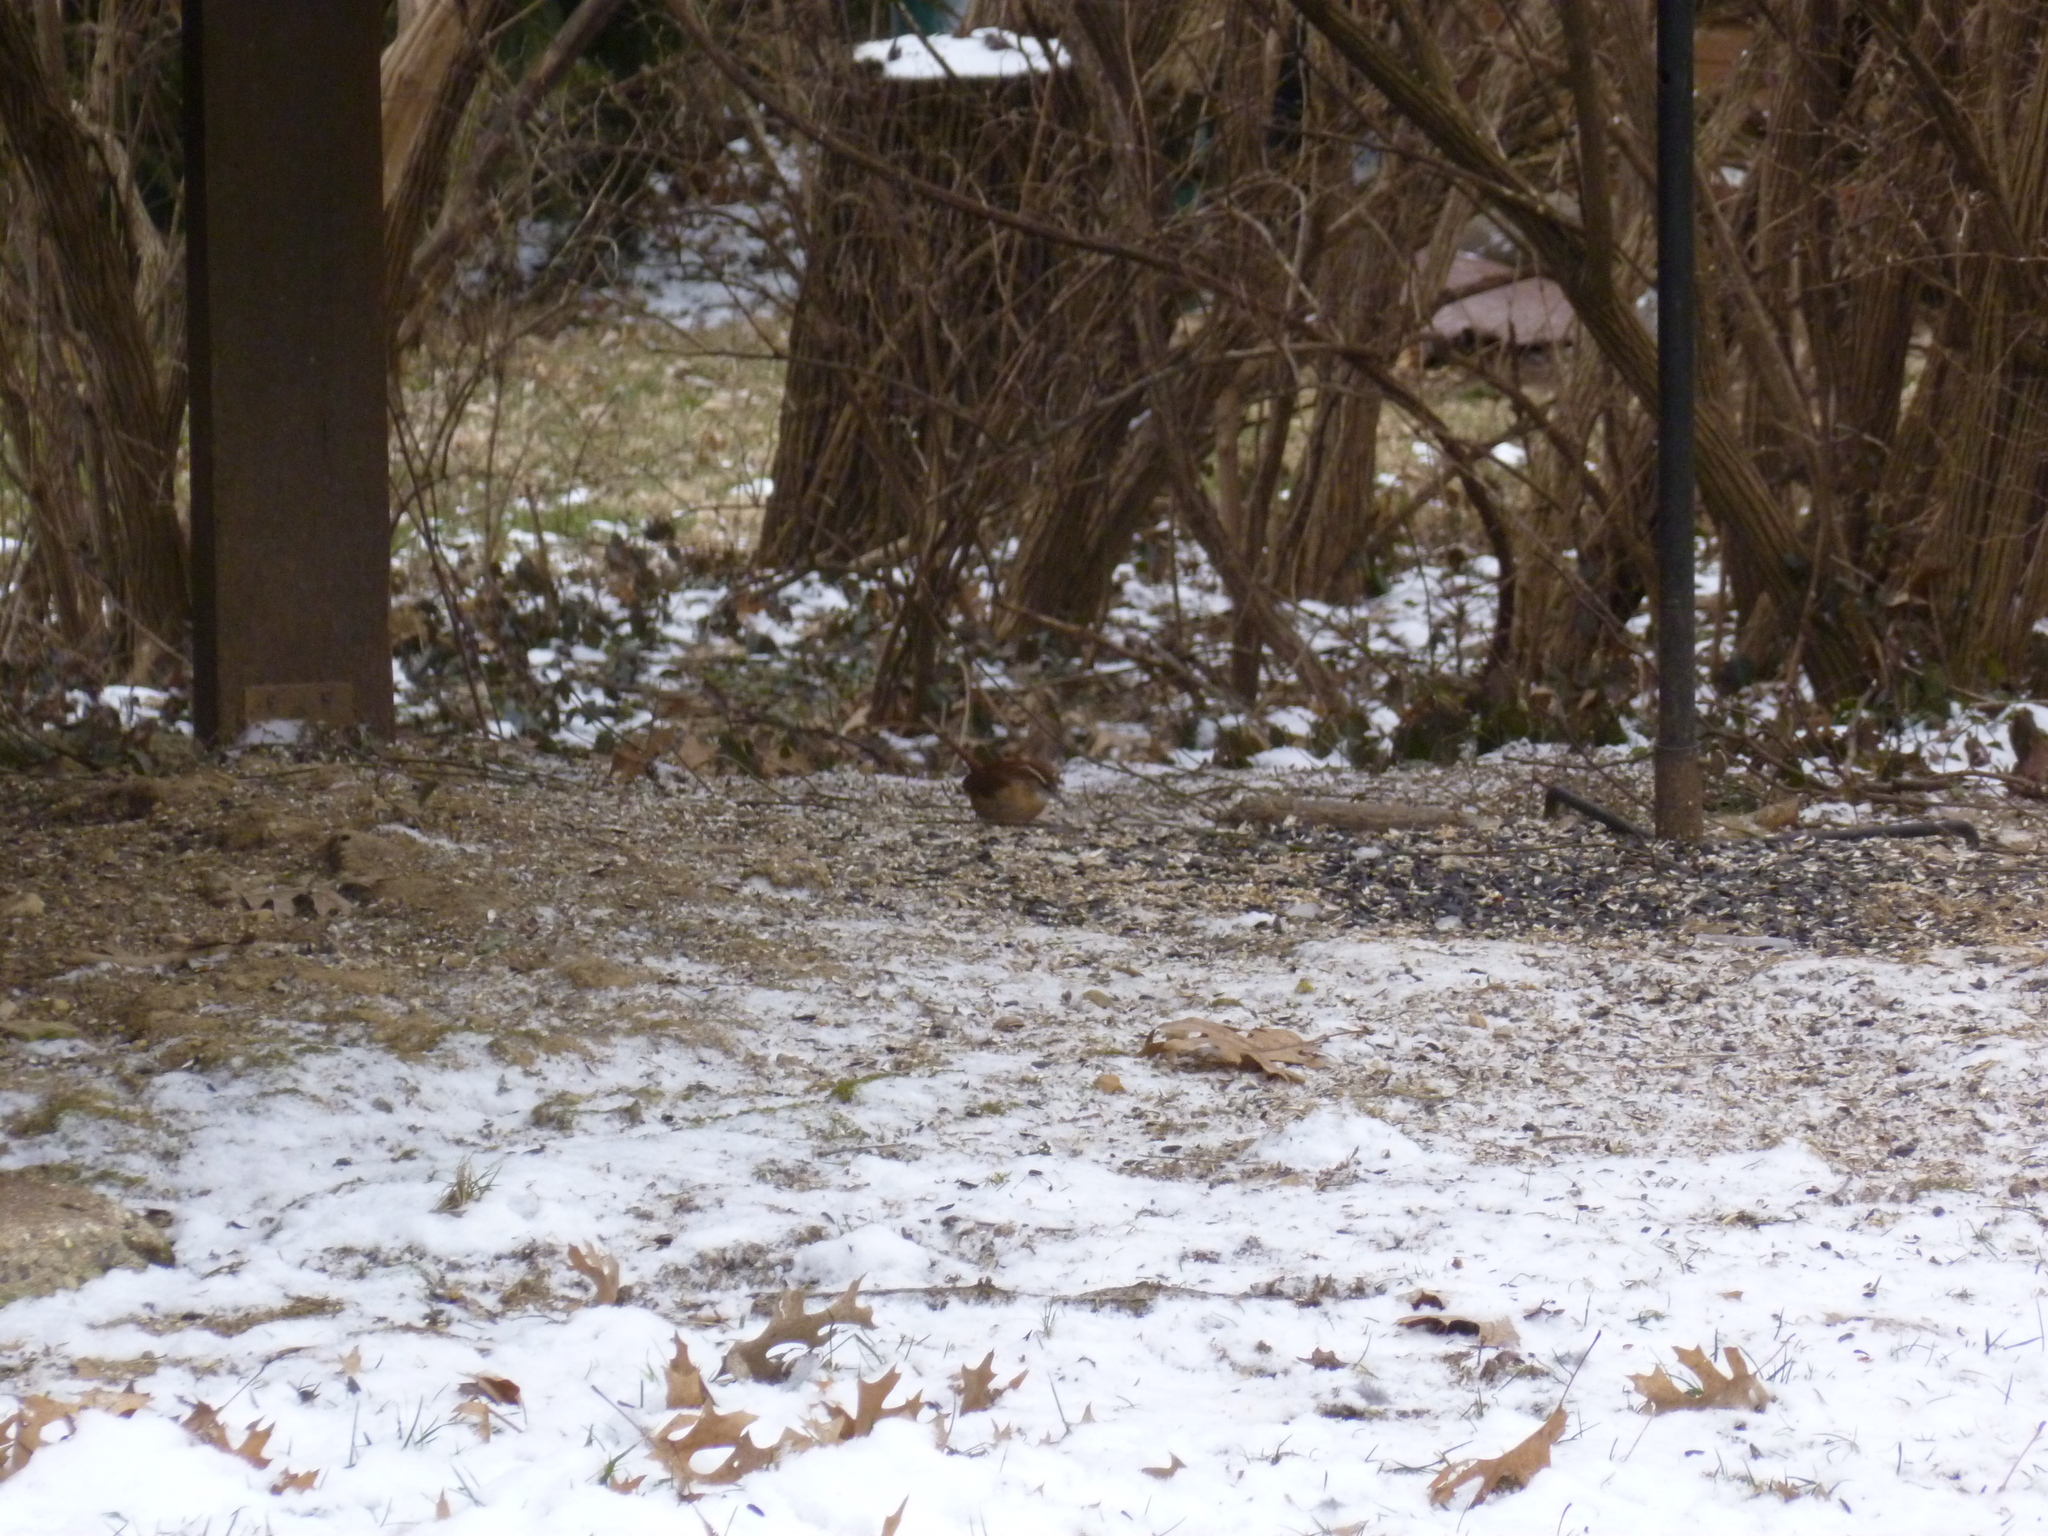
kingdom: Animalia
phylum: Chordata
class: Aves
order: Passeriformes
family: Troglodytidae
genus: Thryothorus
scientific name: Thryothorus ludovicianus
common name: Carolina wren
